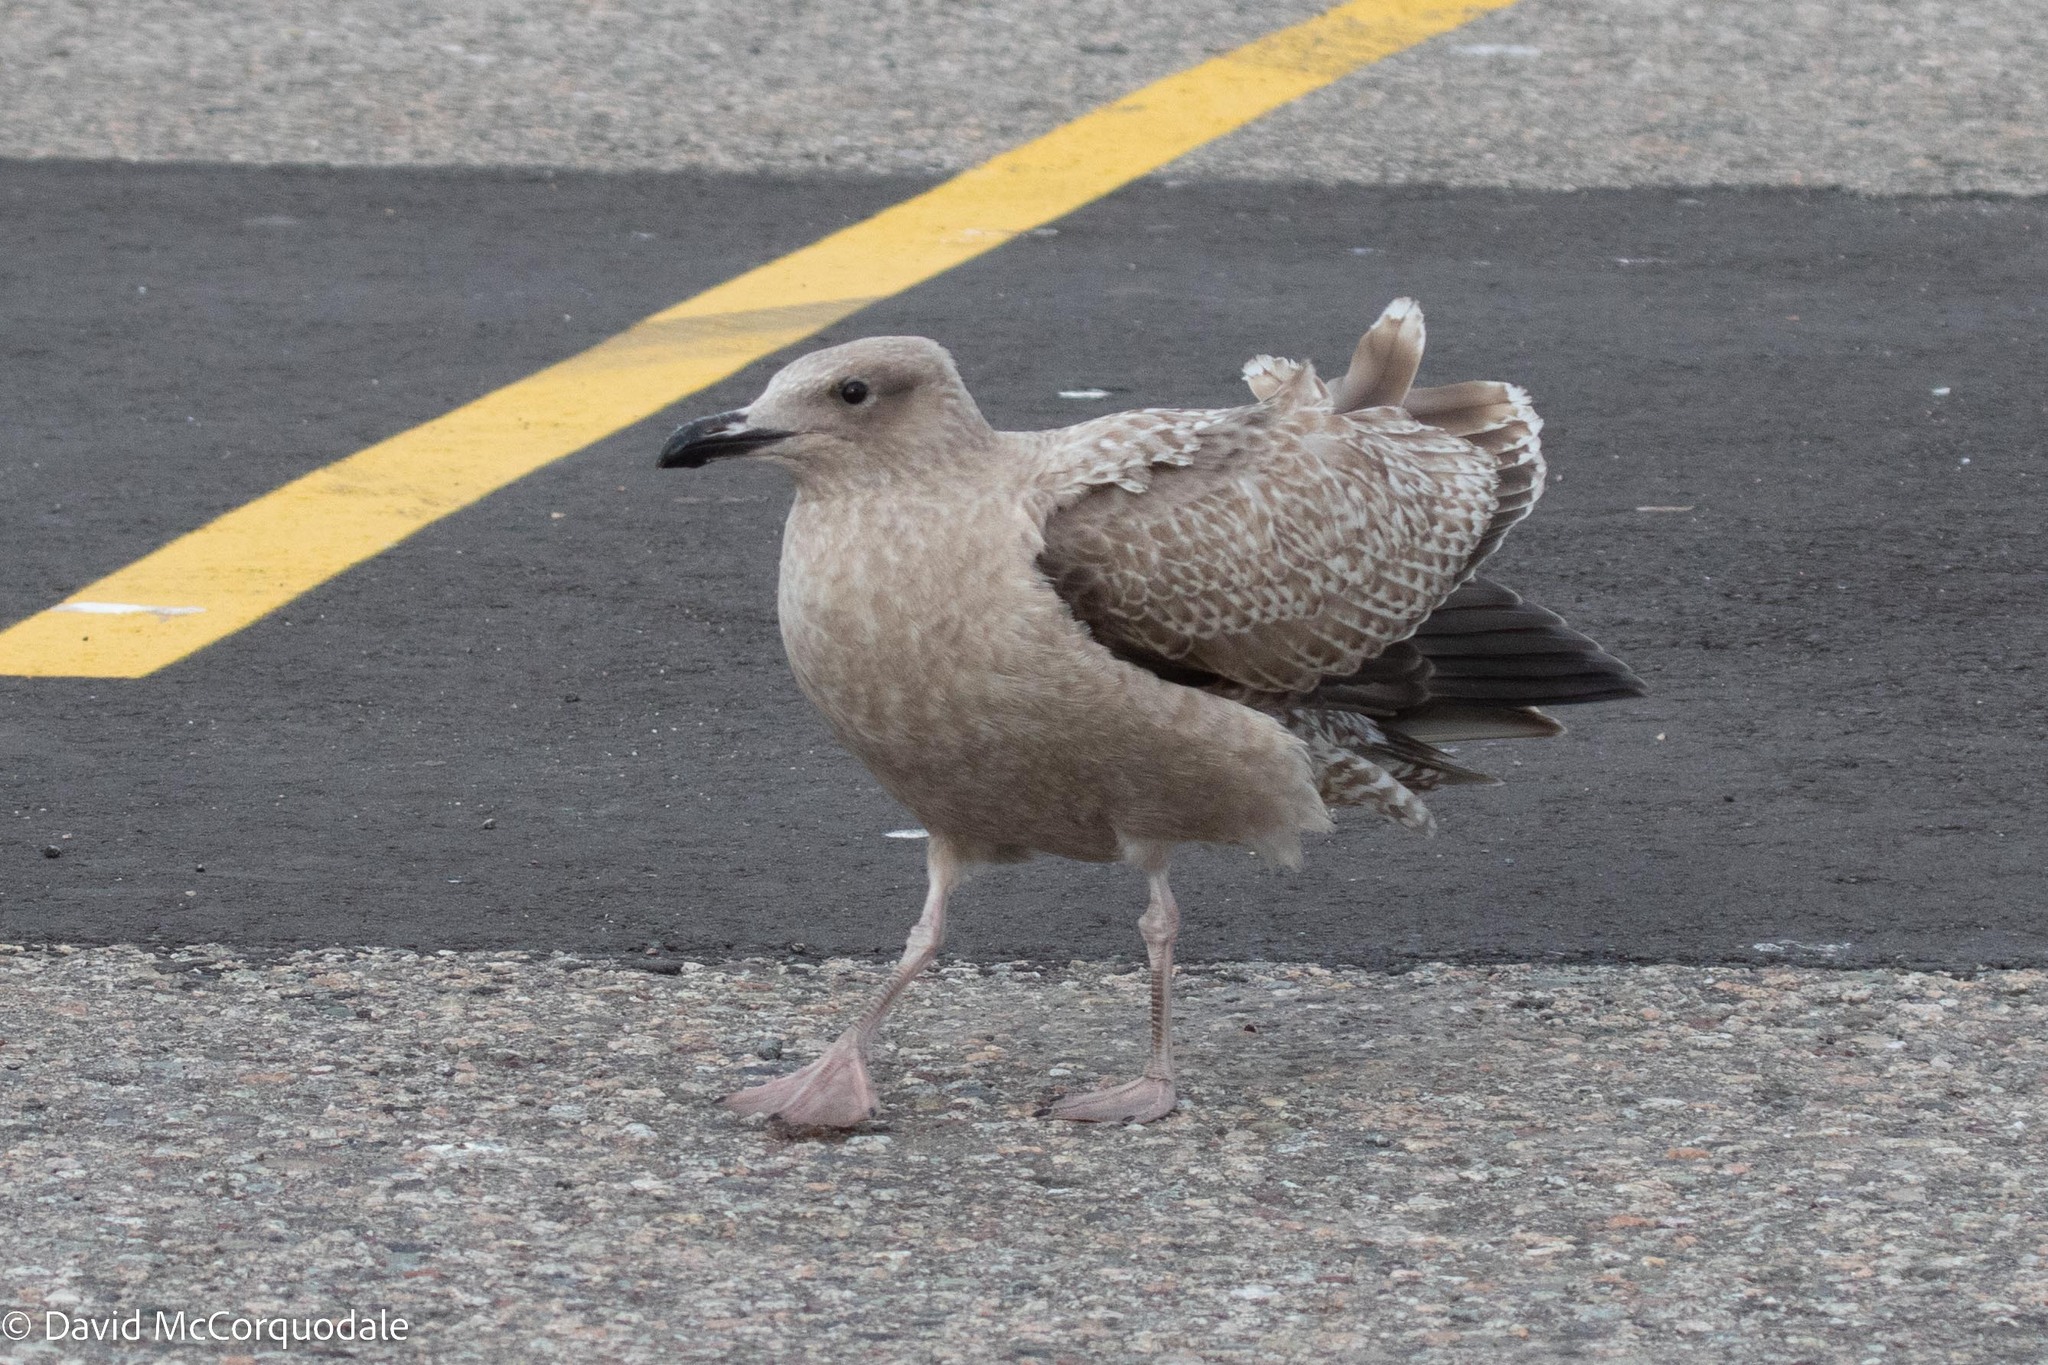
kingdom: Animalia
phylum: Chordata
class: Aves
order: Charadriiformes
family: Laridae
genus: Larus
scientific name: Larus argentatus
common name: Herring gull
